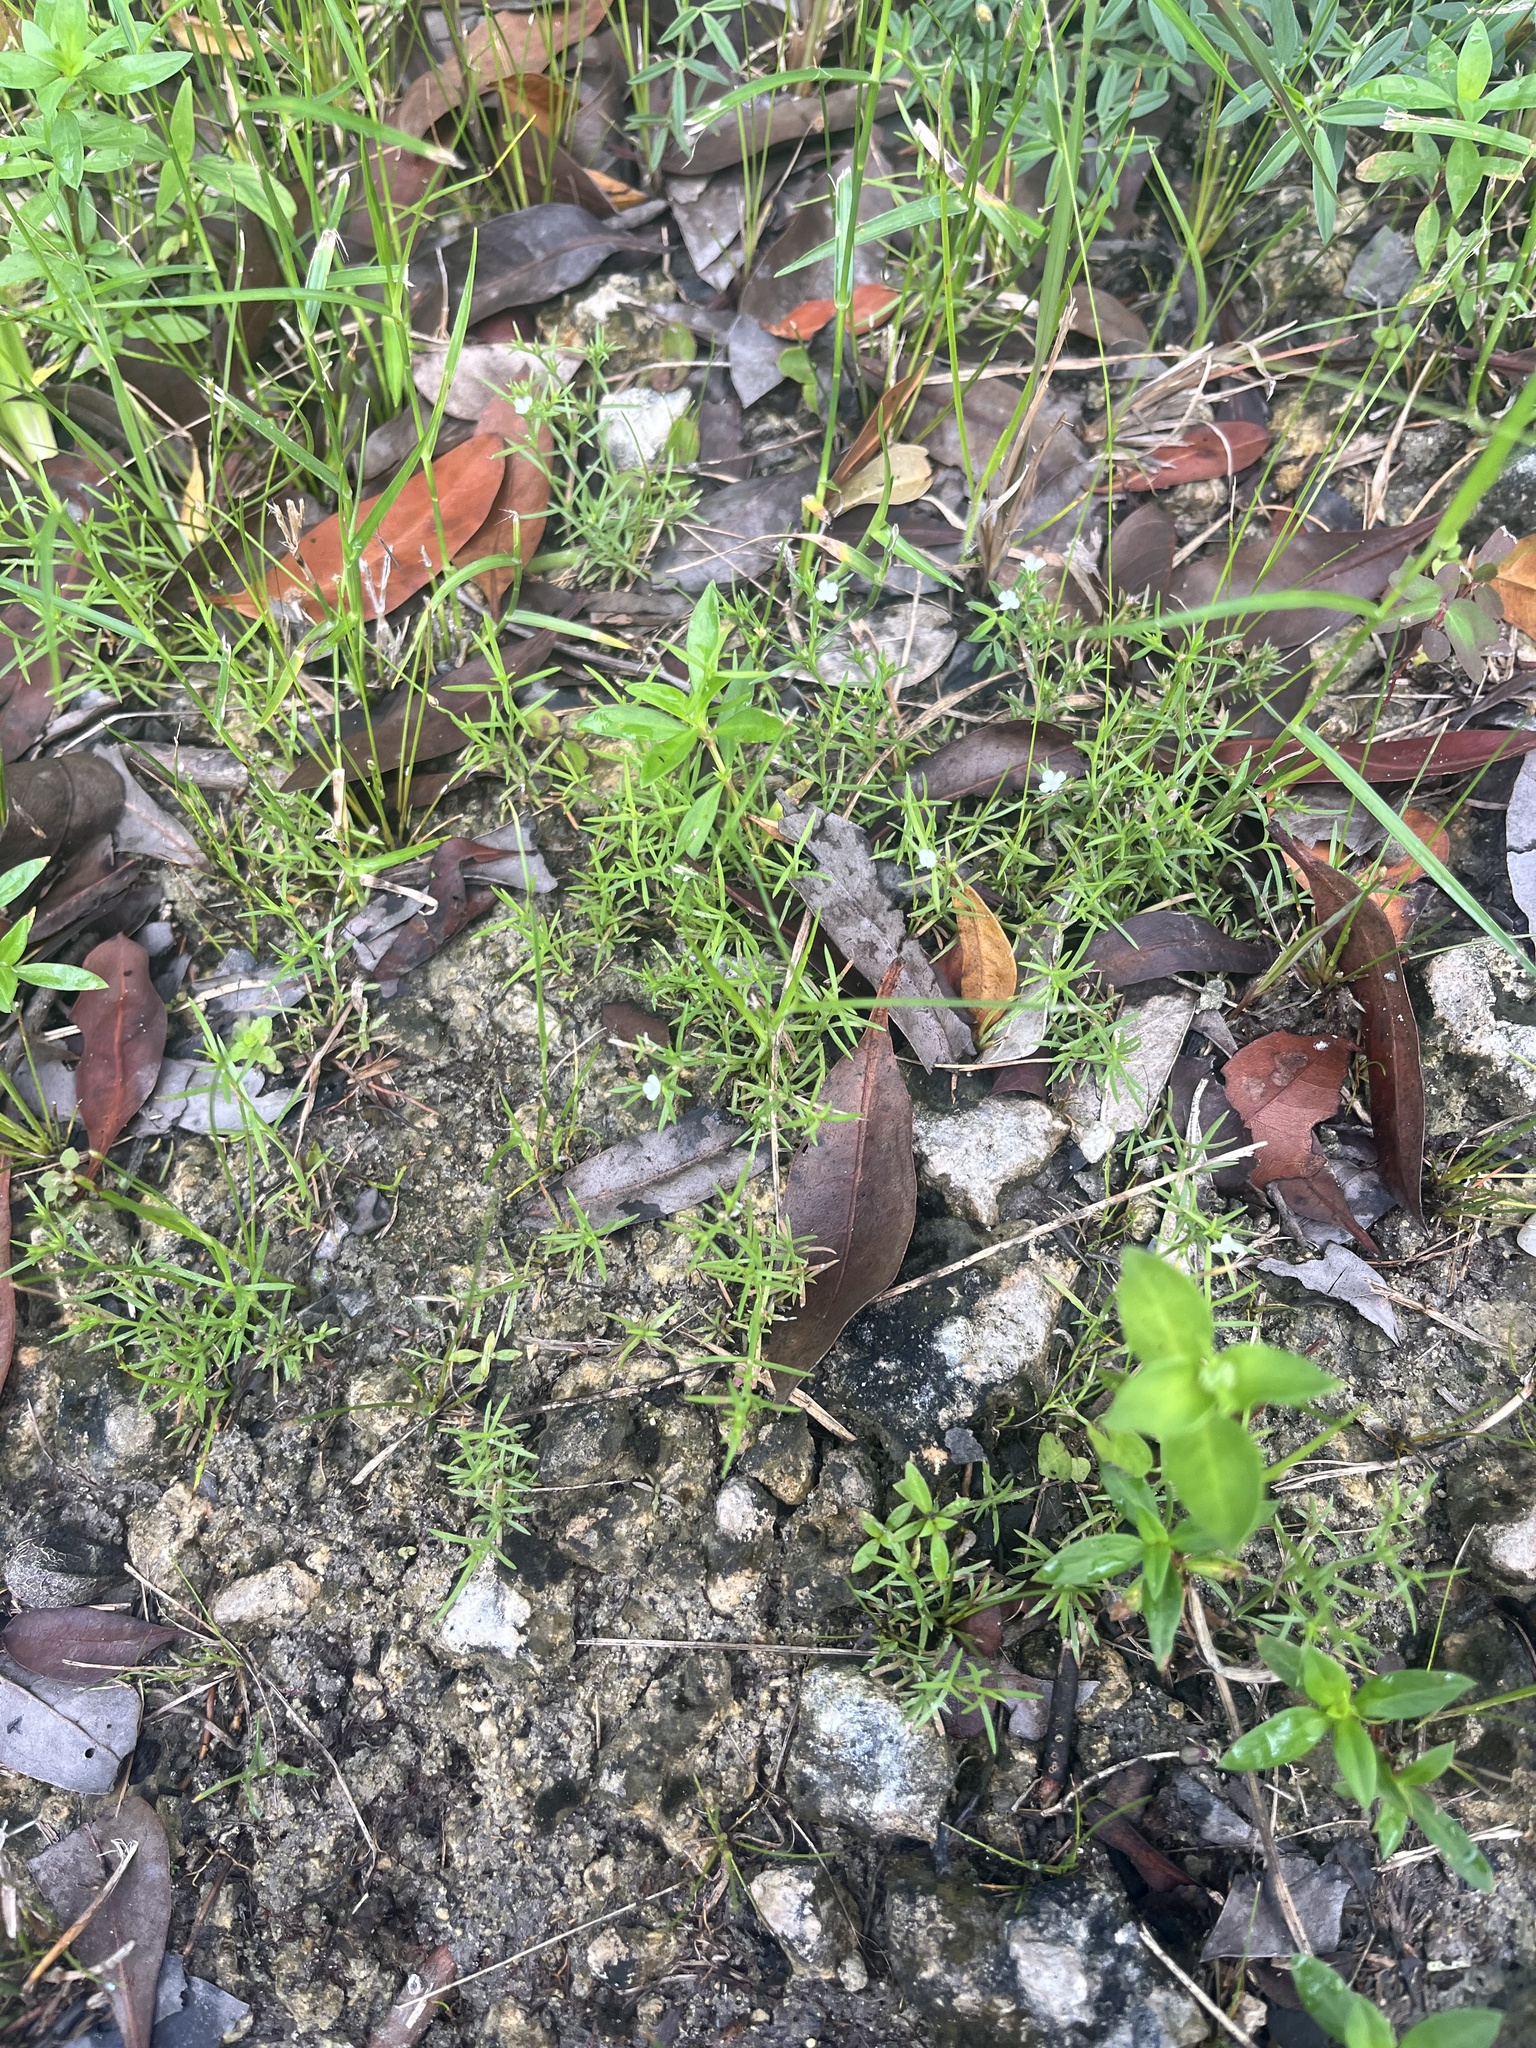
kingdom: Plantae
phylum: Tracheophyta
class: Magnoliopsida
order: Lamiales
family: Tetrachondraceae
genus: Polypremum
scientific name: Polypremum procumbens
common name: Juniper-leaf
